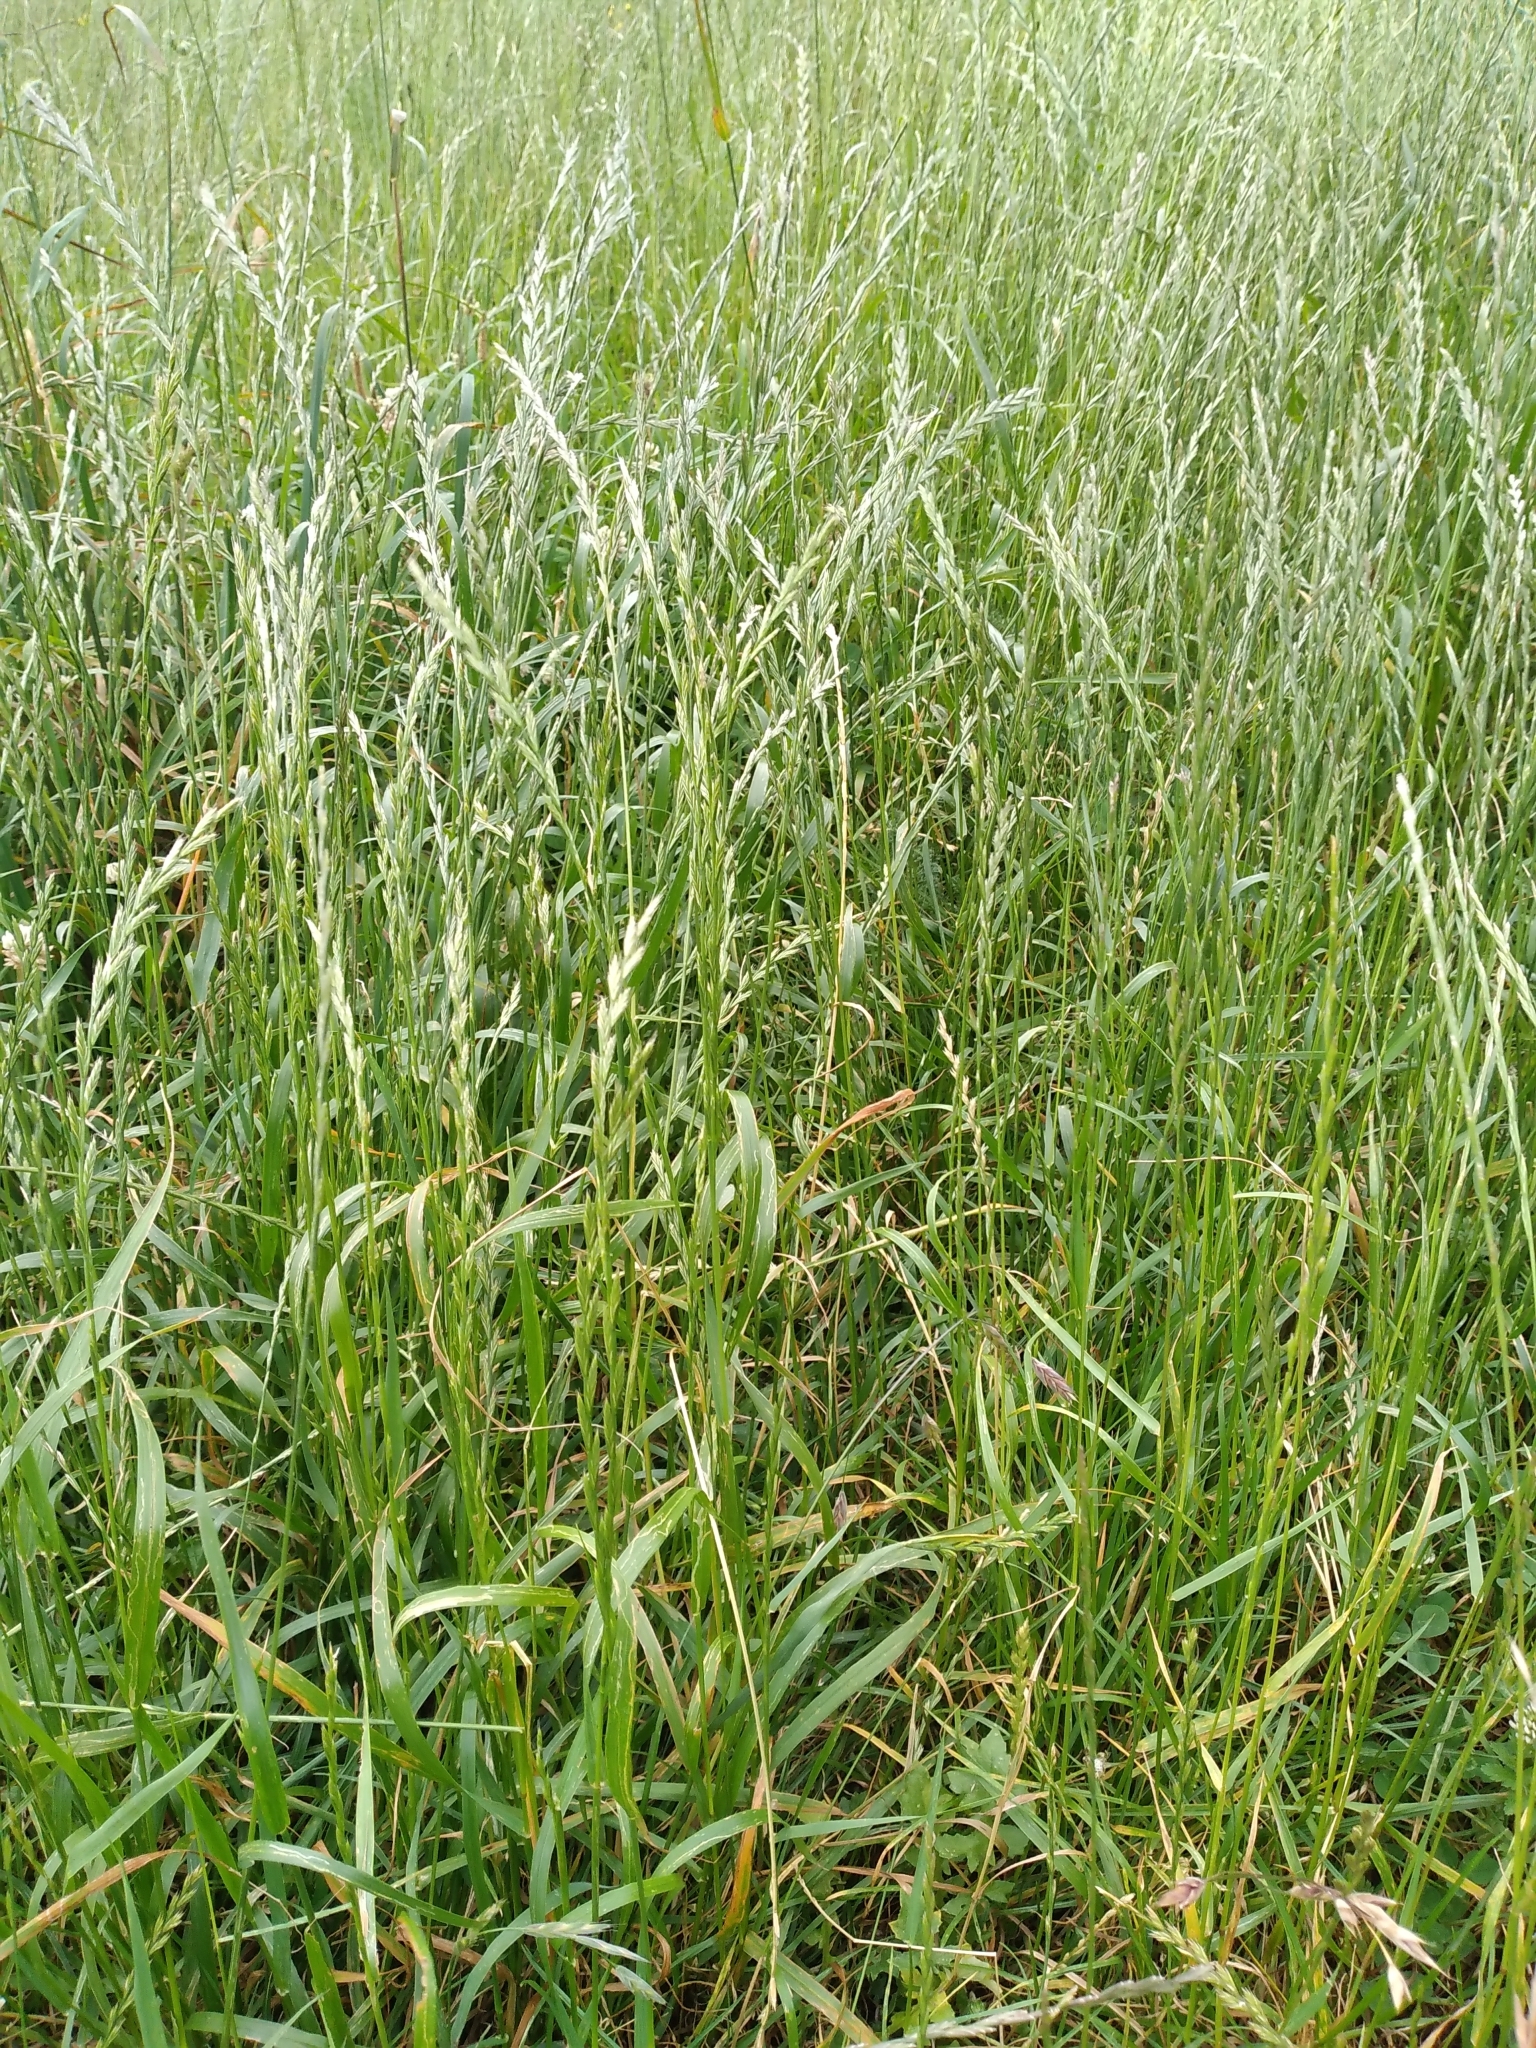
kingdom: Plantae
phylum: Tracheophyta
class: Liliopsida
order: Poales
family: Poaceae
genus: Lolium
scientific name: Lolium perenne
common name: Perennial ryegrass
